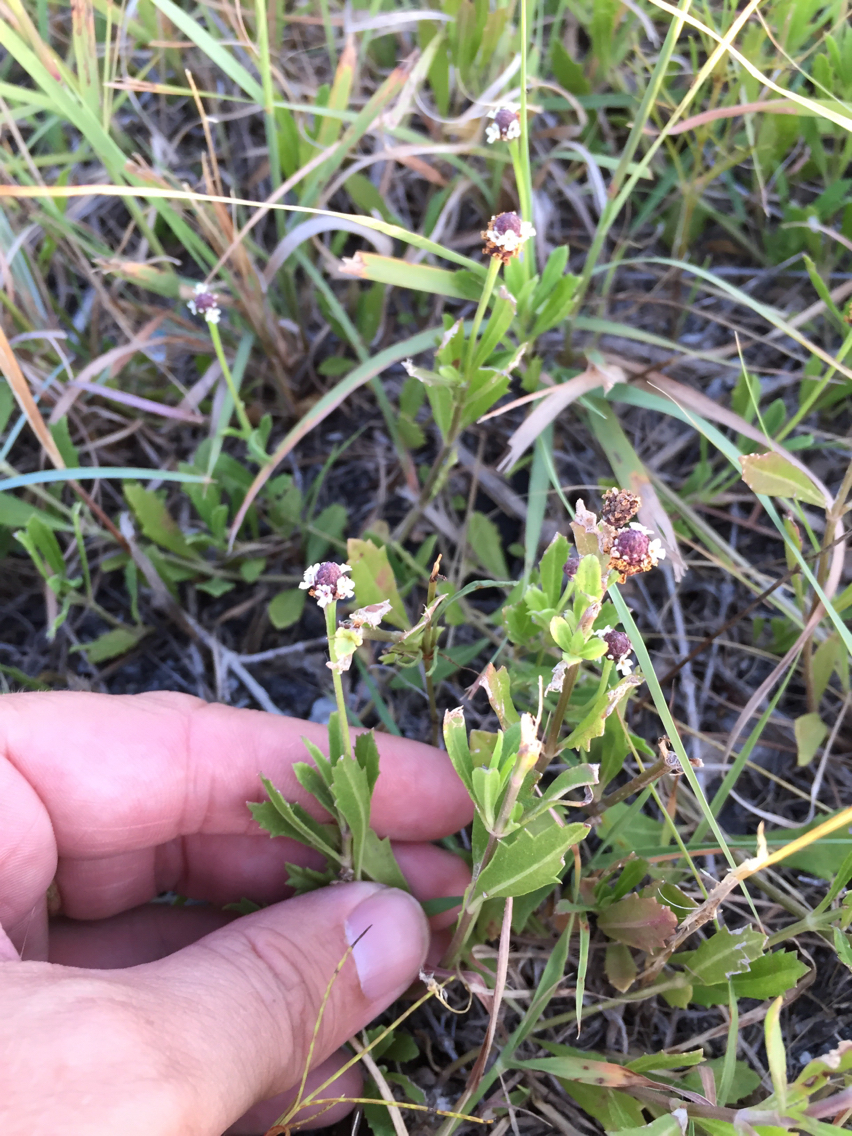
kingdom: Plantae
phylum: Tracheophyta
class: Magnoliopsida
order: Lamiales
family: Verbenaceae
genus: Phyla
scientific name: Phyla nodiflora
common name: Frogfruit
